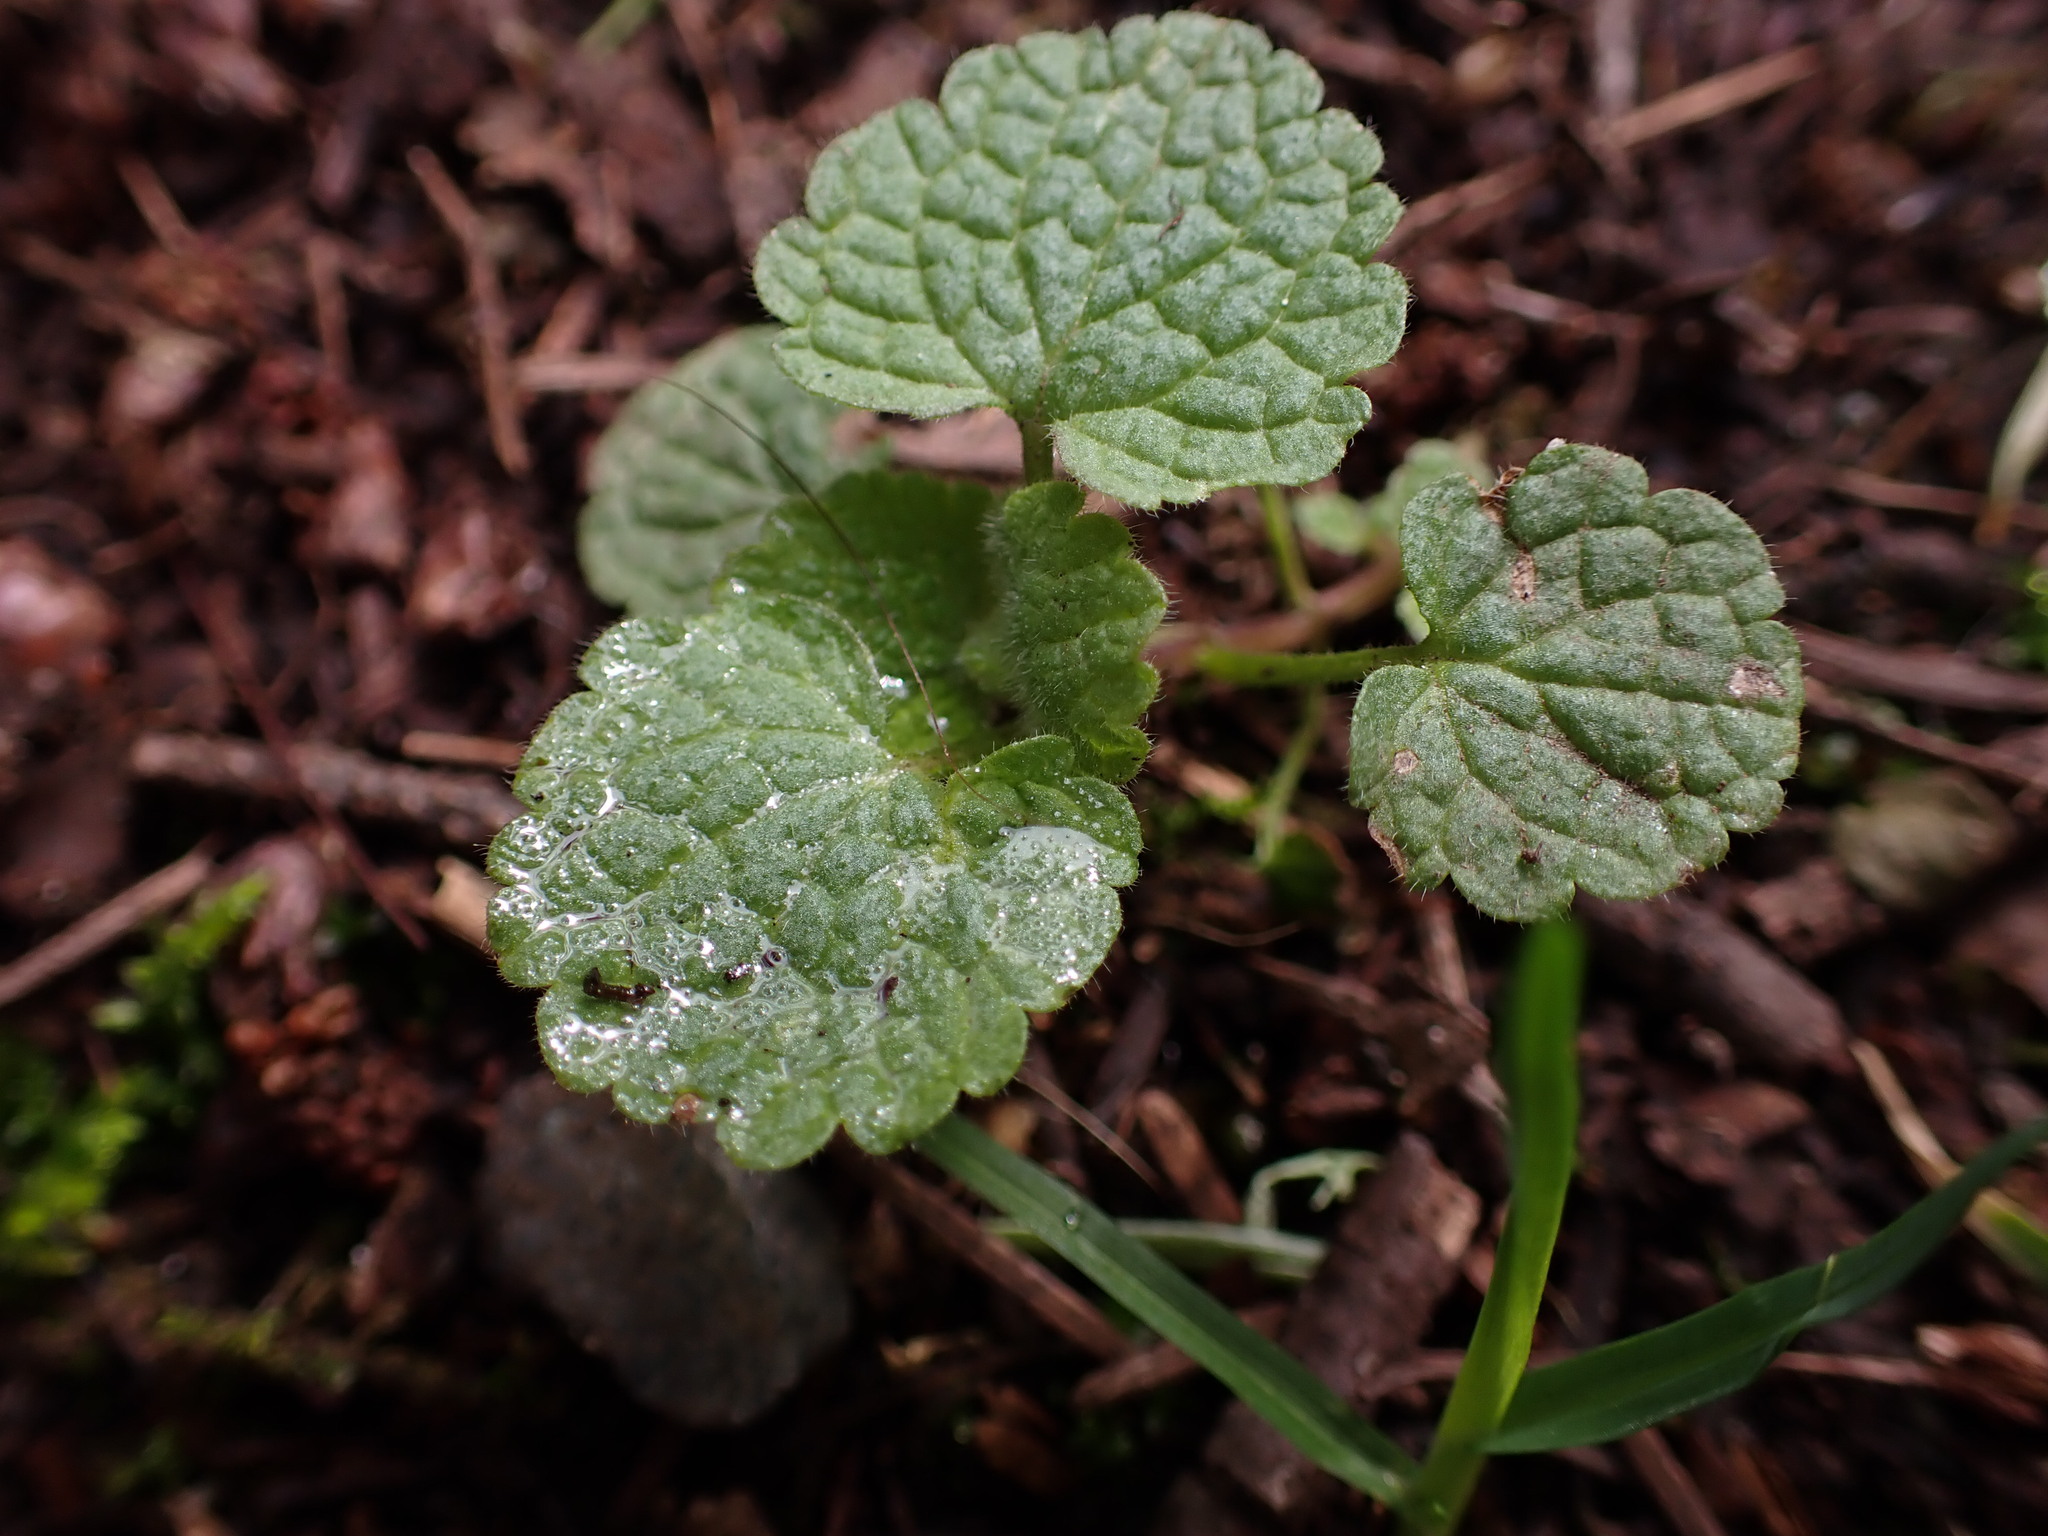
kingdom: Plantae
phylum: Tracheophyta
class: Magnoliopsida
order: Lamiales
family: Lamiaceae
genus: Lamium
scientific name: Lamium purpureum
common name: Red dead-nettle
